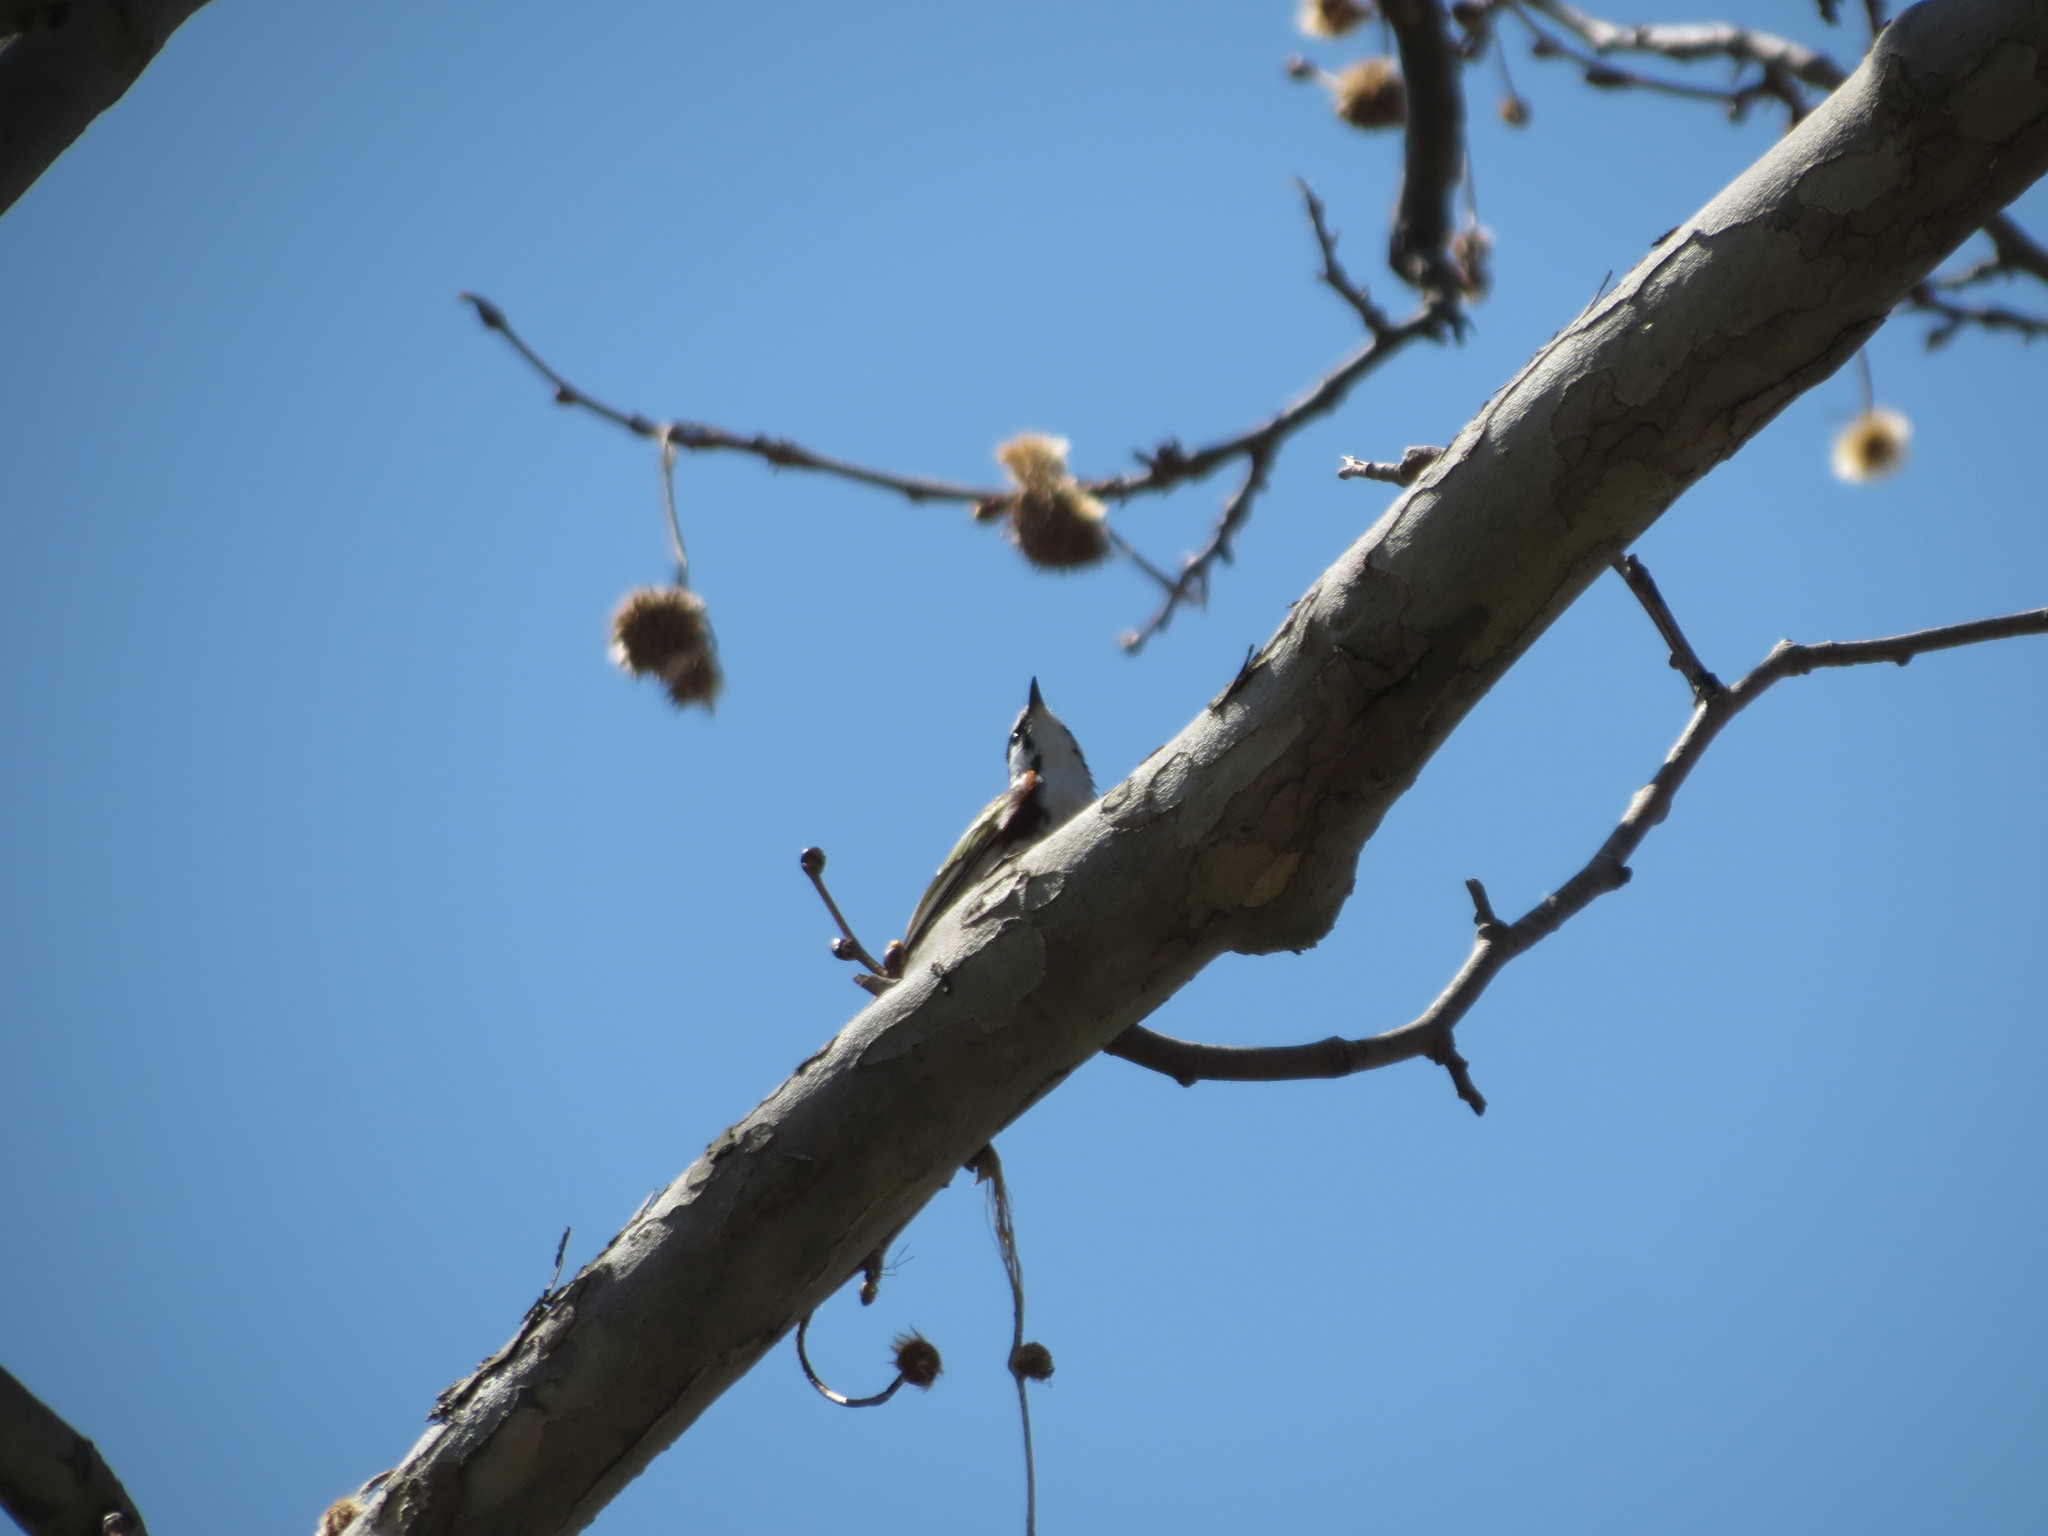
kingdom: Animalia
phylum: Chordata
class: Aves
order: Passeriformes
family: Parulidae
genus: Setophaga
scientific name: Setophaga pensylvanica
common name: Chestnut-sided warbler
